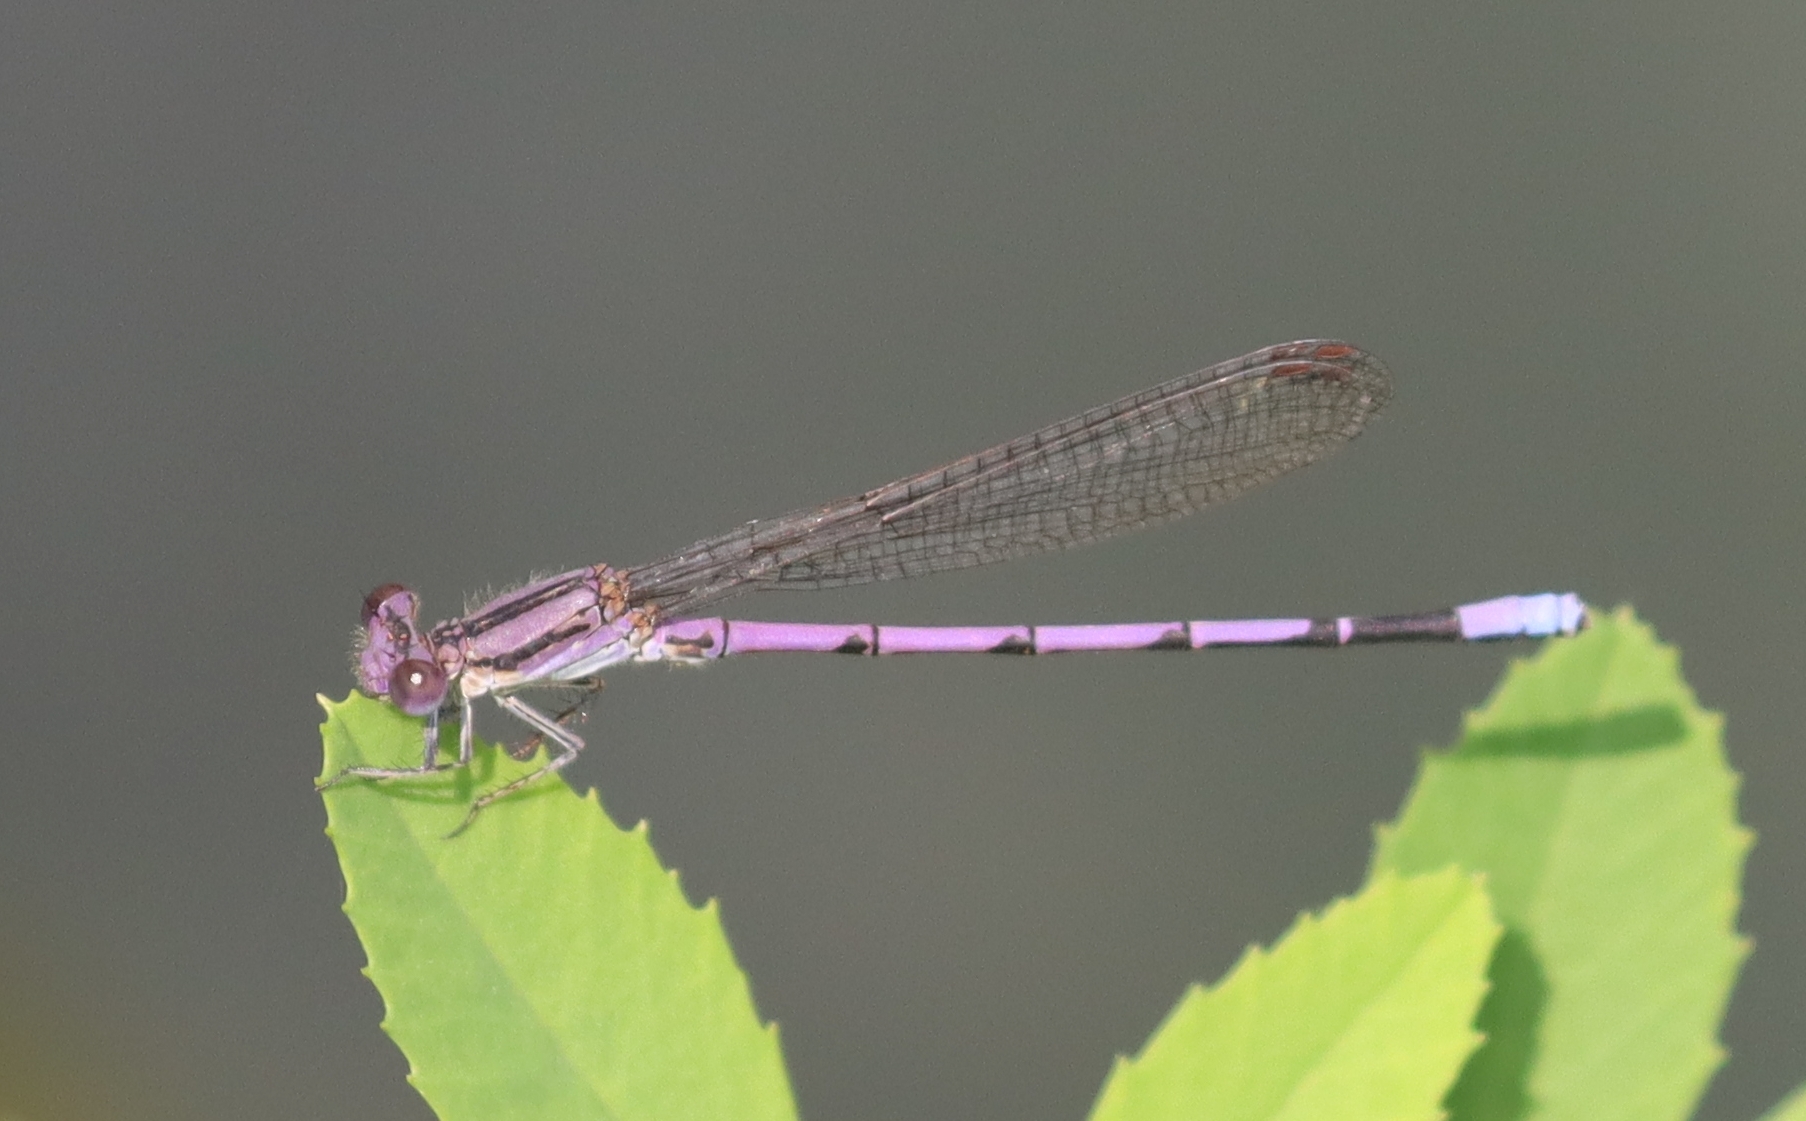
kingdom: Animalia
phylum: Arthropoda
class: Insecta
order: Odonata
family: Coenagrionidae
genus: Argia
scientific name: Argia fumipennis
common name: Variable dancer
